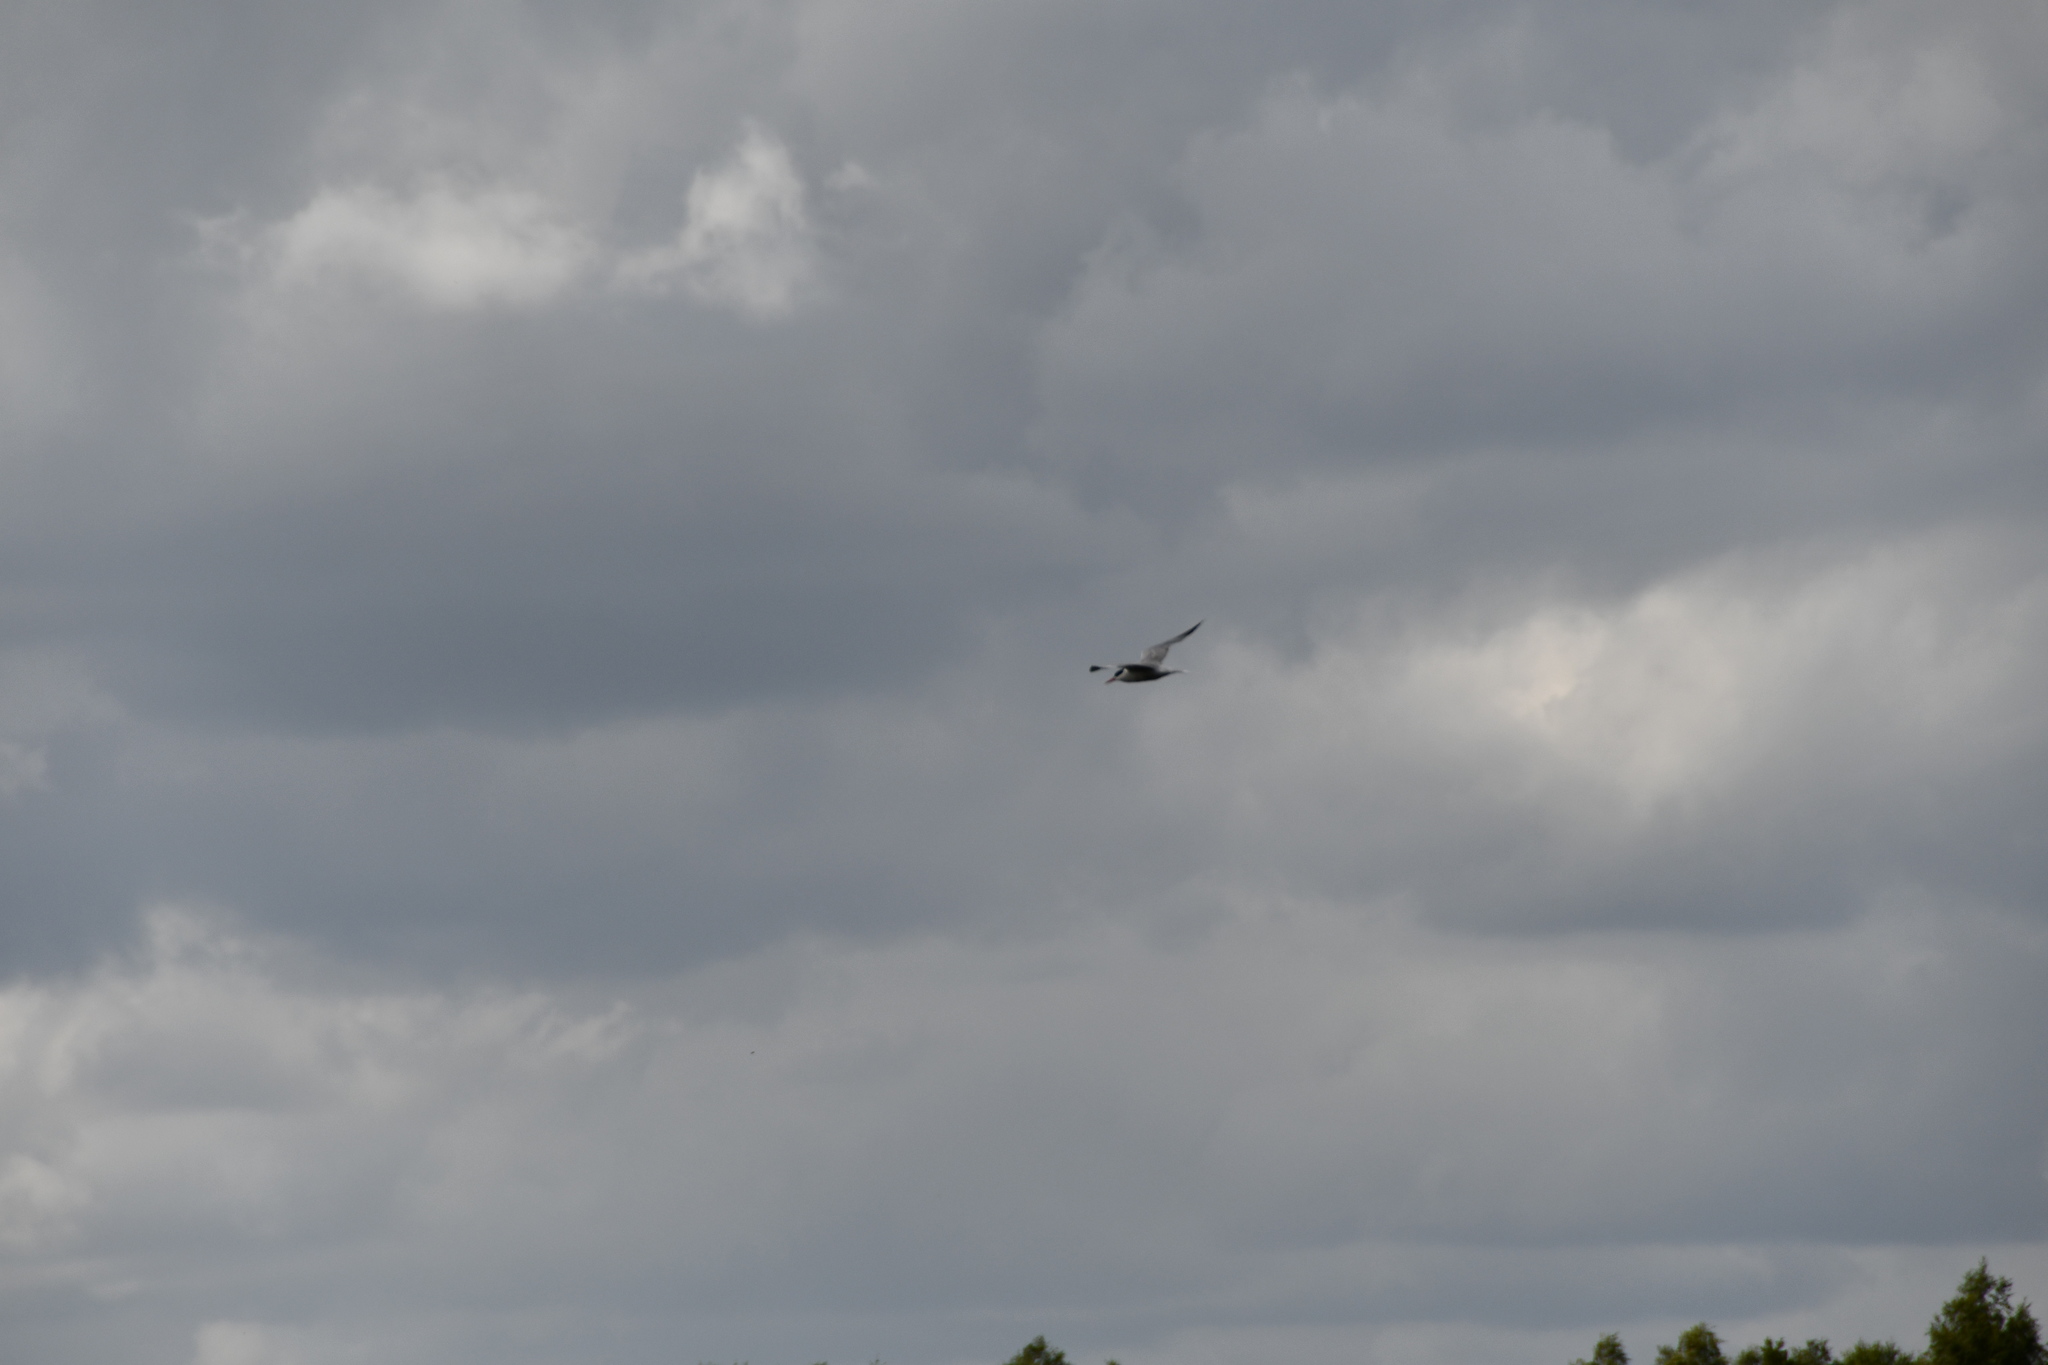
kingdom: Animalia
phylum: Chordata
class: Aves
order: Charadriiformes
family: Laridae
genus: Sterna
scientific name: Sterna hirundo
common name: Common tern
